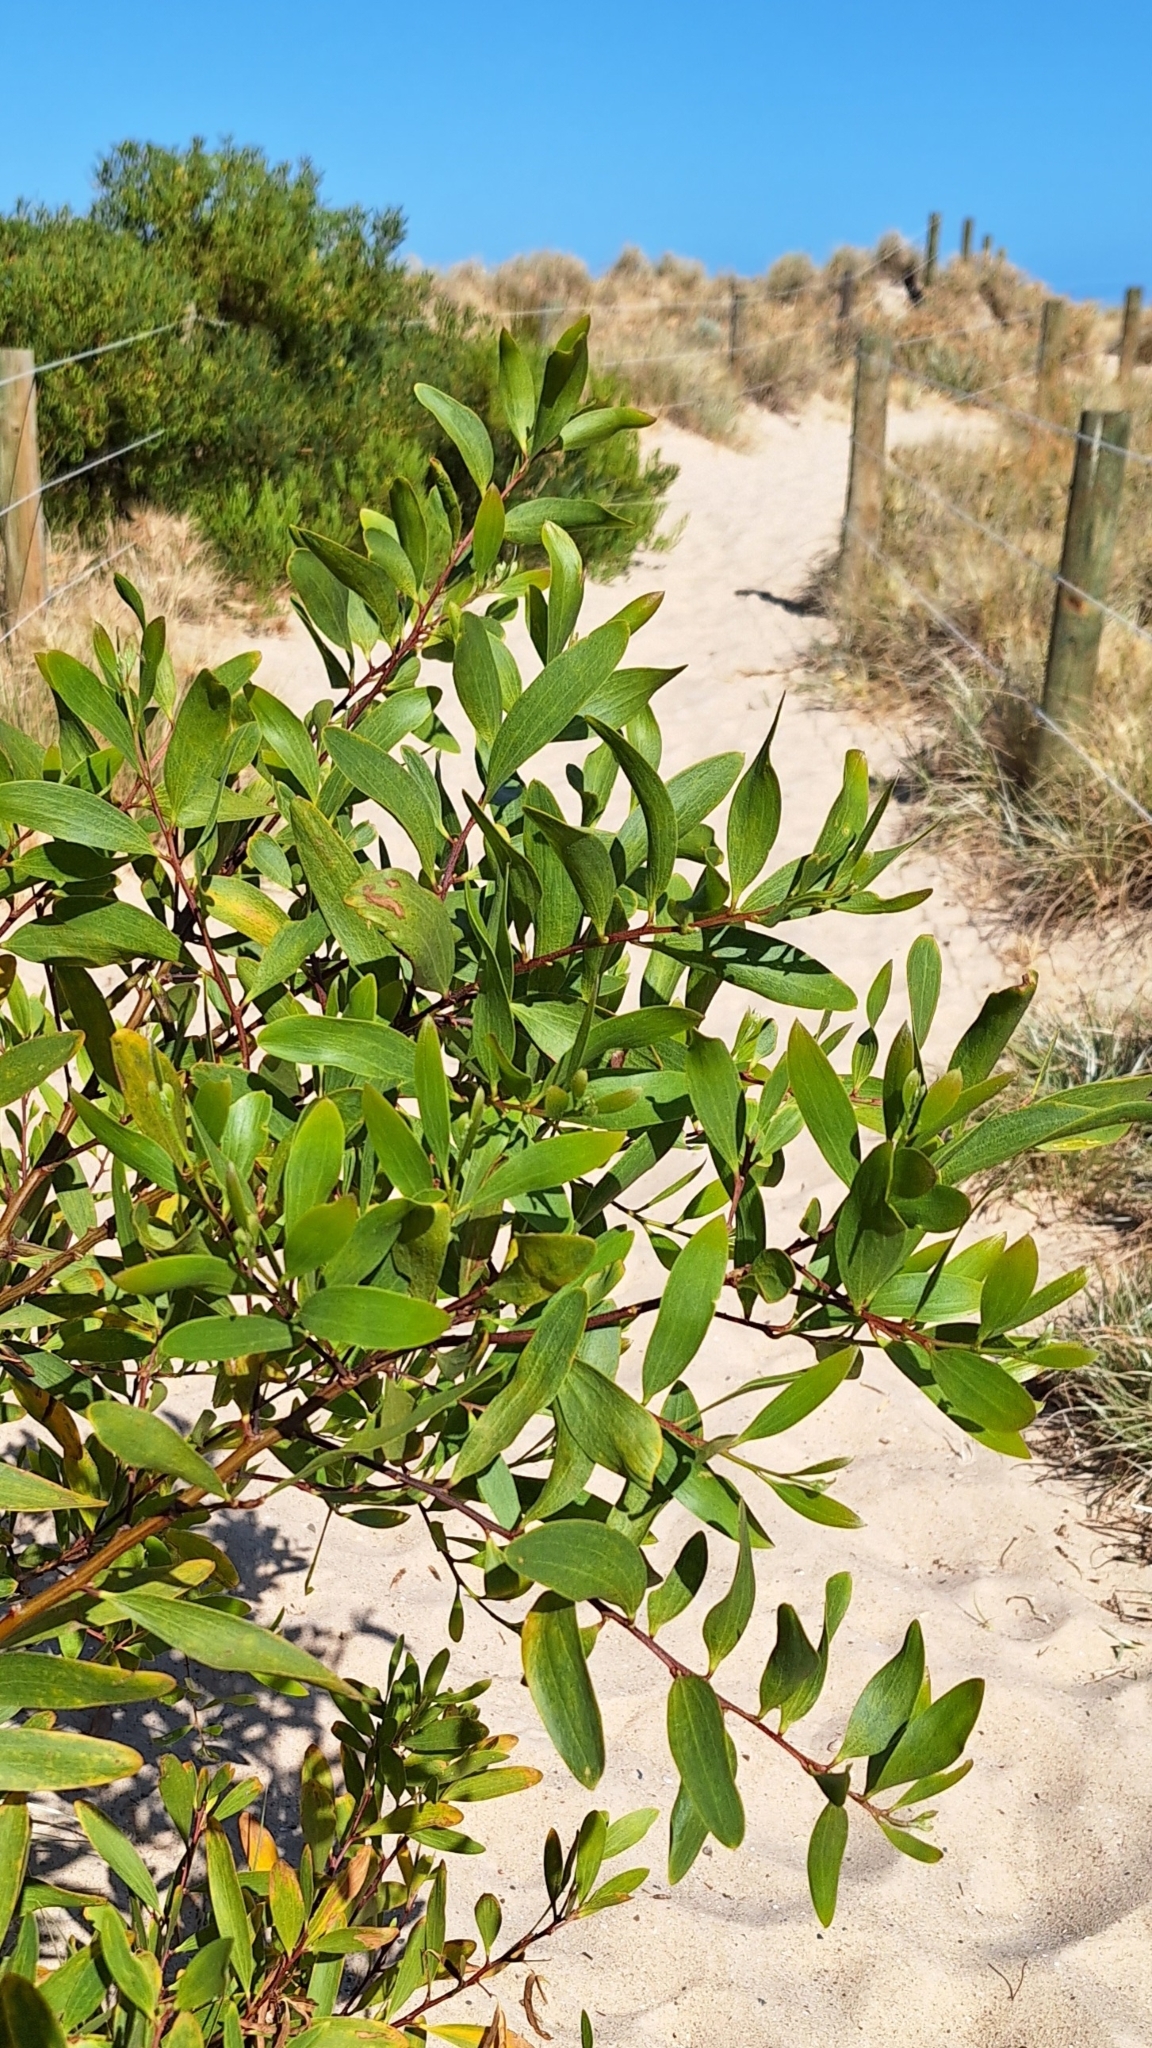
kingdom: Plantae
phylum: Tracheophyta
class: Magnoliopsida
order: Fabales
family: Fabaceae
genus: Acacia
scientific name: Acacia longifolia
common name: Sydney golden wattle
